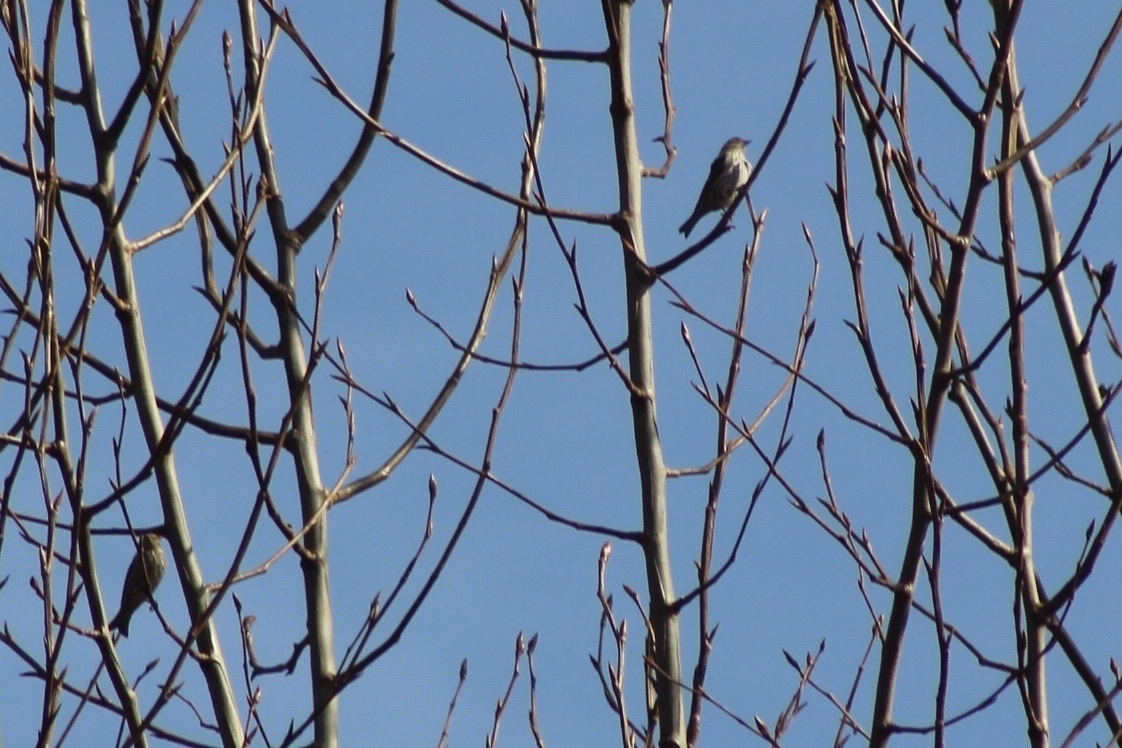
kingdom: Animalia
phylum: Chordata
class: Aves
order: Passeriformes
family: Fringillidae
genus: Spinus
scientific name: Spinus pinus
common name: Pine siskin
